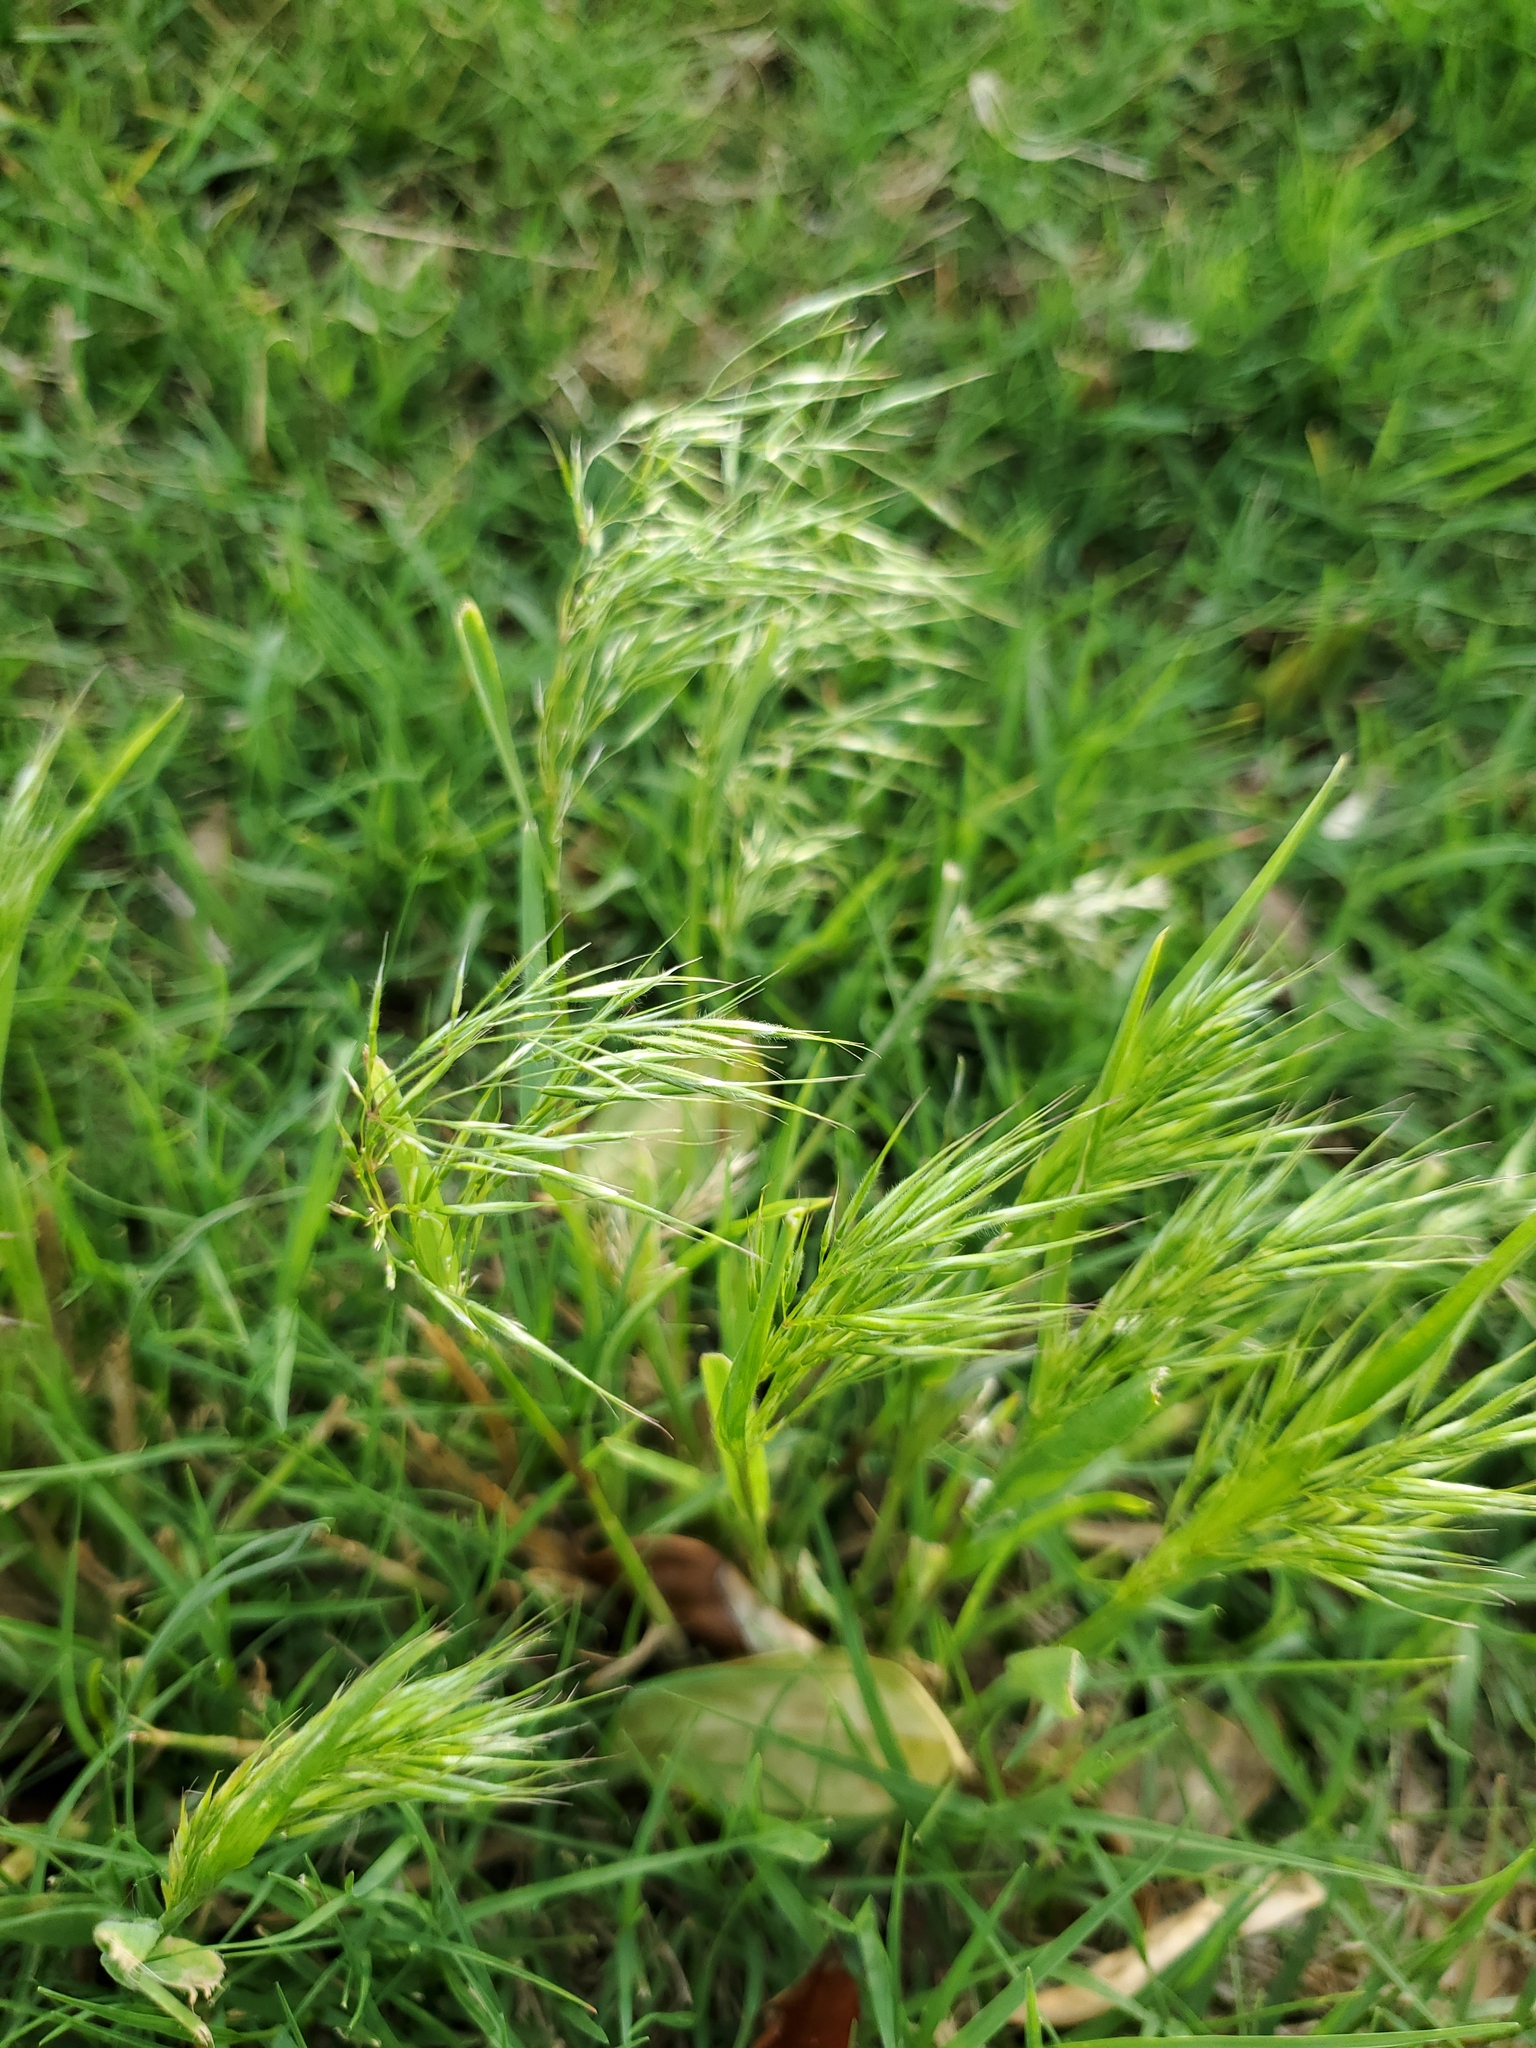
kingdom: Plantae
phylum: Tracheophyta
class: Liliopsida
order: Poales
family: Poaceae
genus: Bromus
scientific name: Bromus tectorum
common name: Cheatgrass
